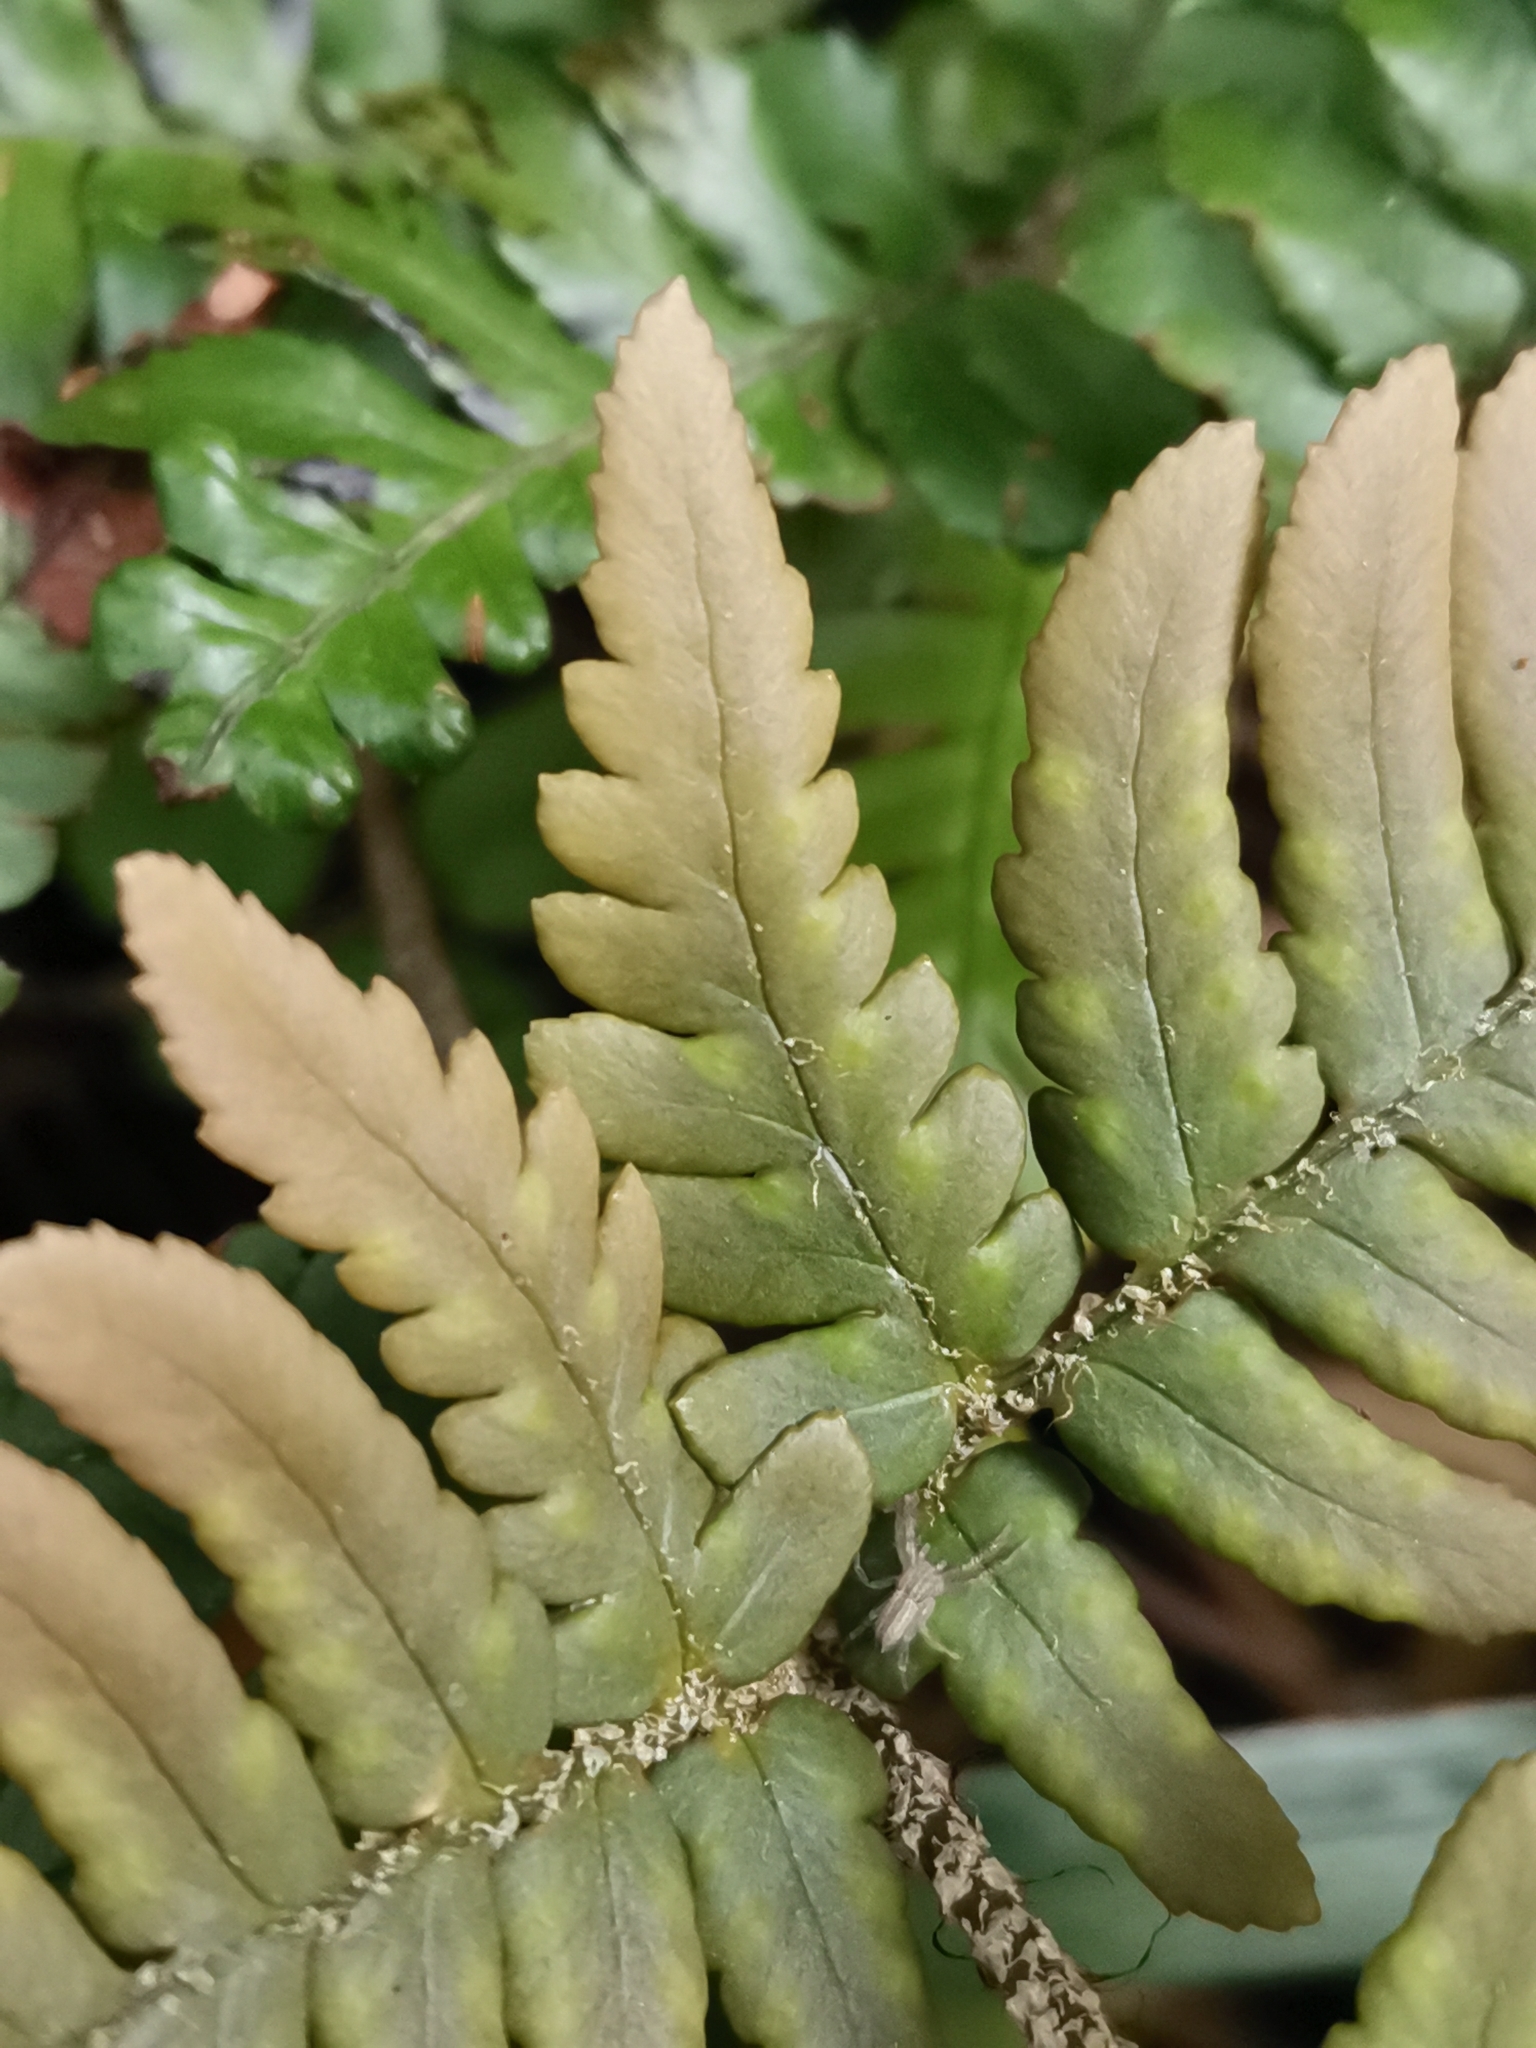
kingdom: Plantae
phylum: Tracheophyta
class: Polypodiopsida
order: Polypodiales
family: Dryopteridaceae
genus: Dryopteris
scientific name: Dryopteris immixta
